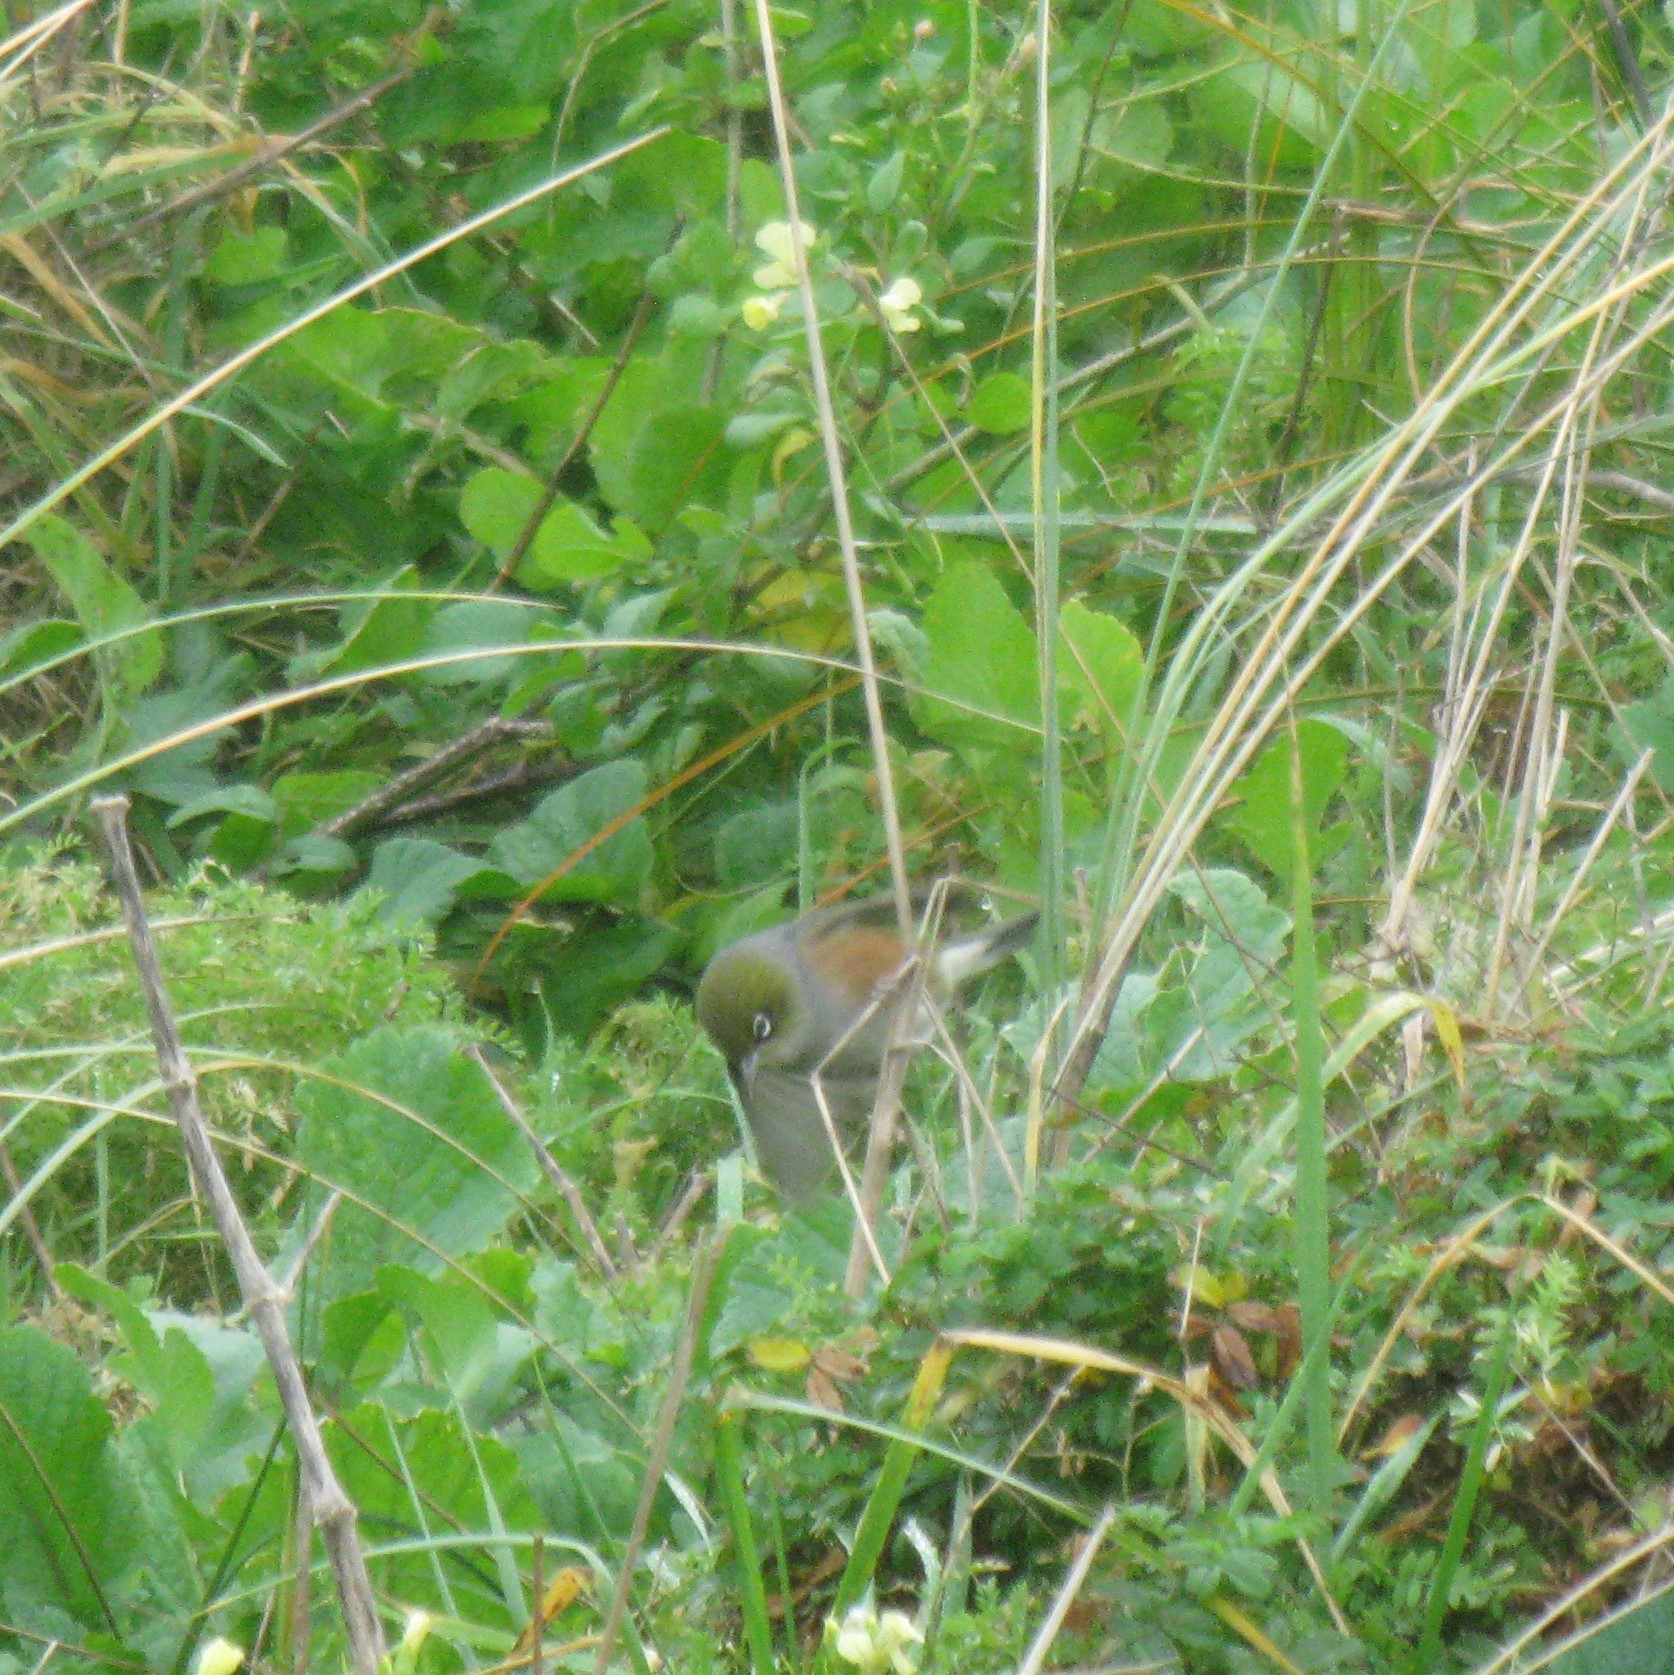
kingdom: Animalia
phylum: Chordata
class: Aves
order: Passeriformes
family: Zosteropidae
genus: Zosterops
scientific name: Zosterops lateralis
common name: Silvereye
